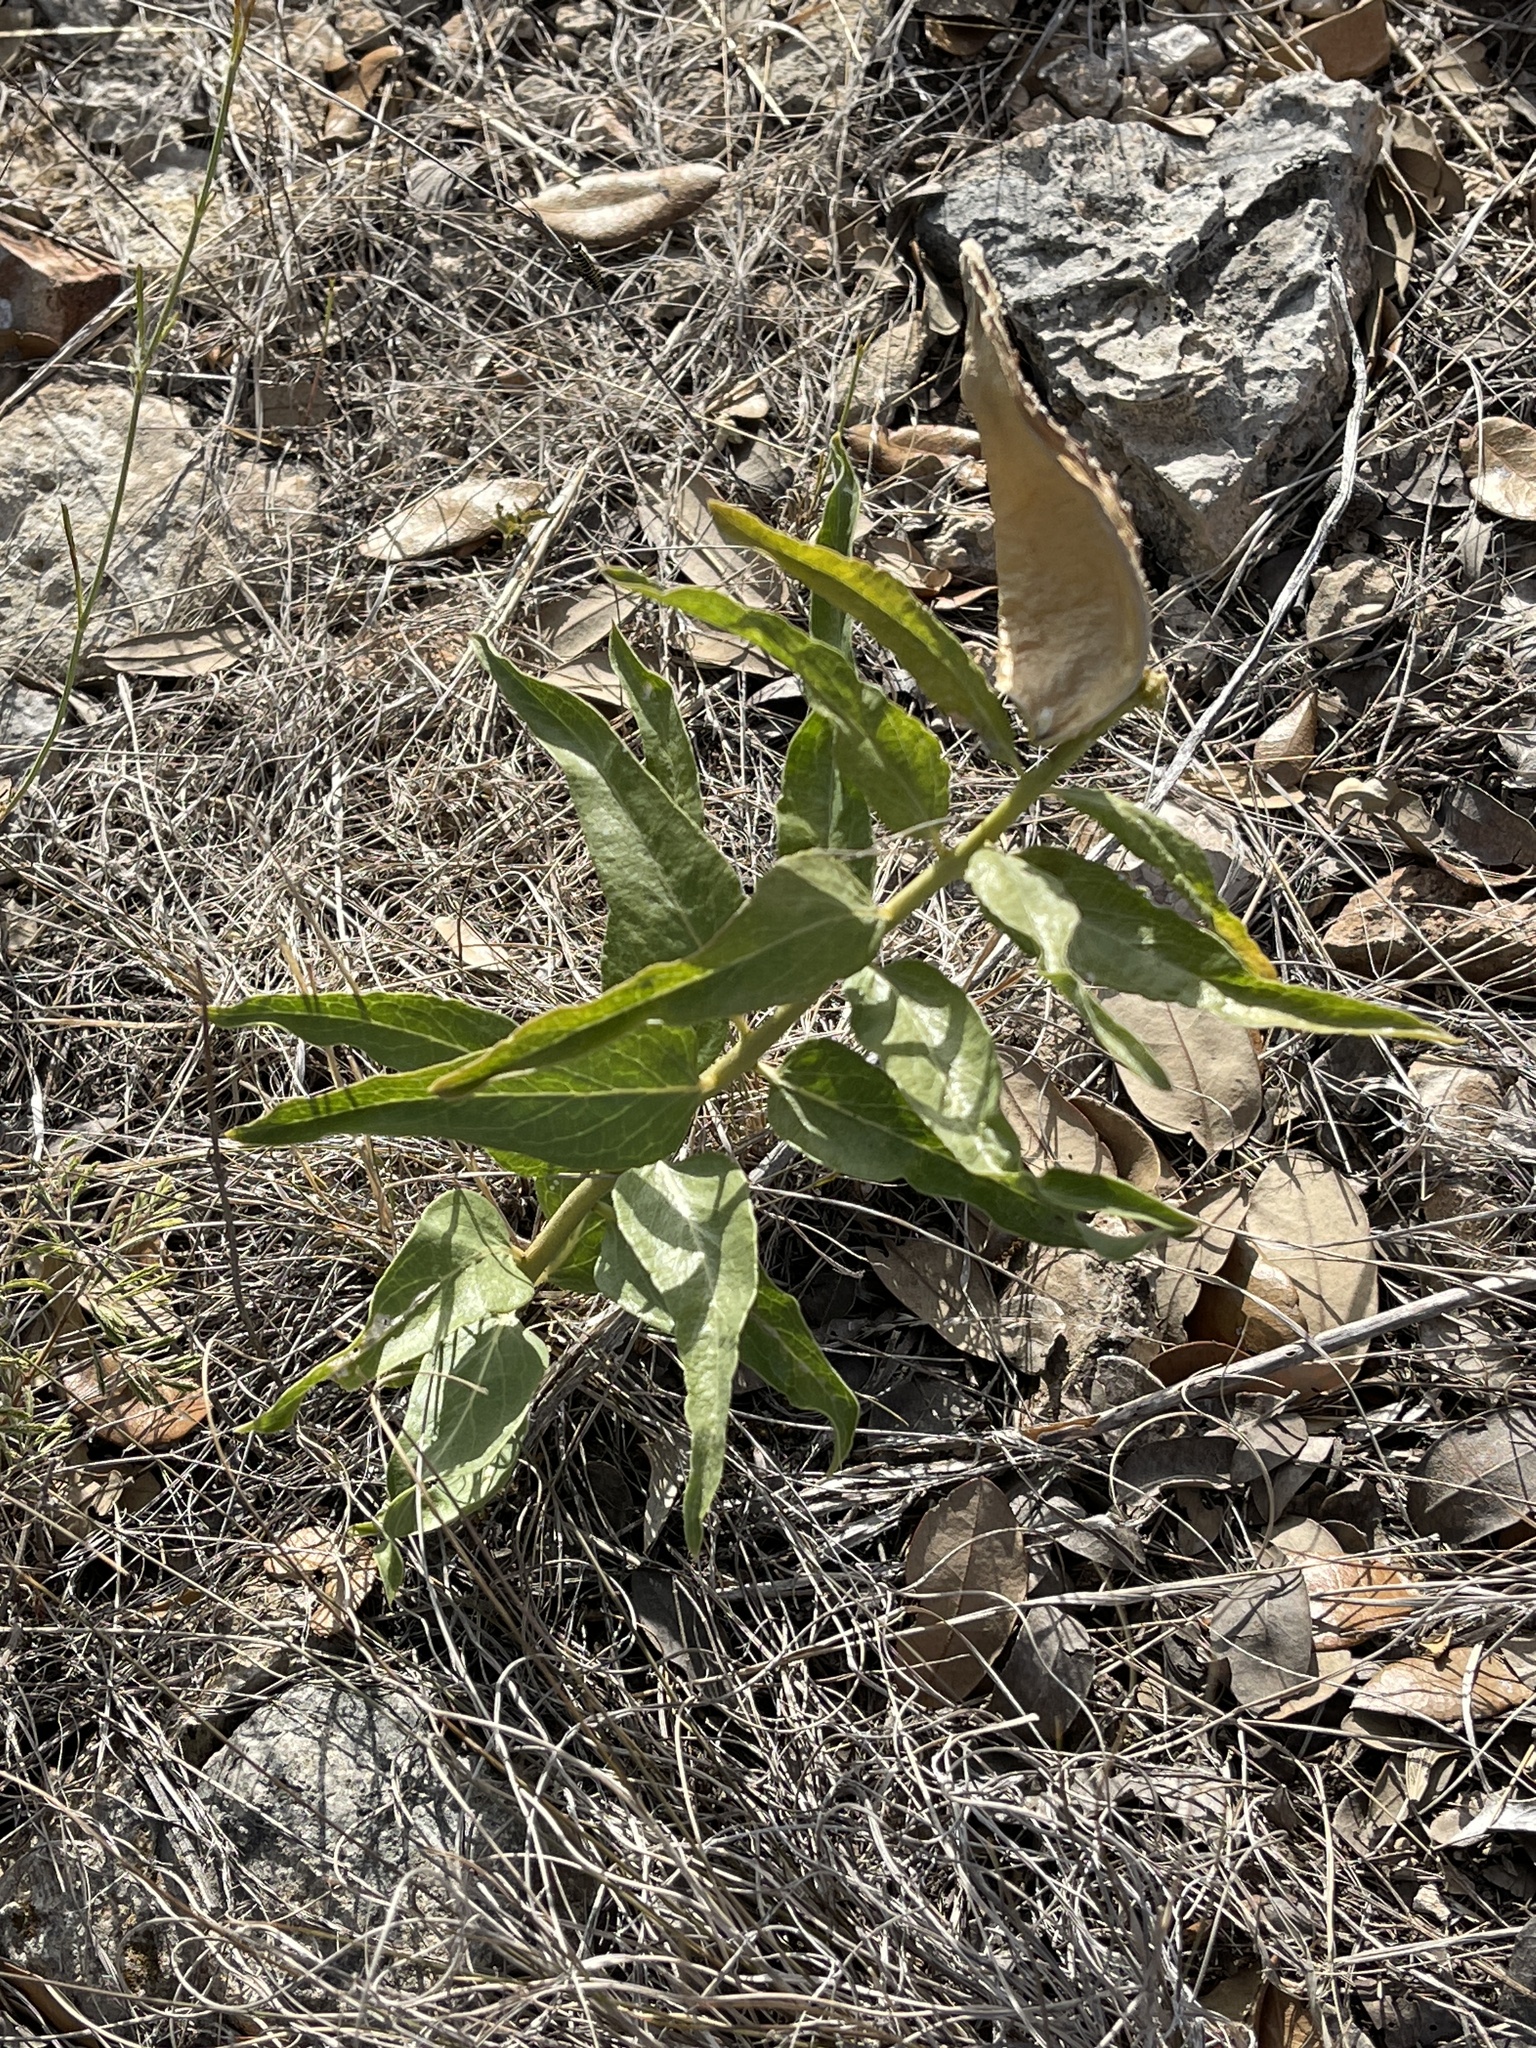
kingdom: Plantae
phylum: Tracheophyta
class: Magnoliopsida
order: Gentianales
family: Apocynaceae
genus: Asclepias
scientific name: Asclepias asperula
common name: Antelope horns
